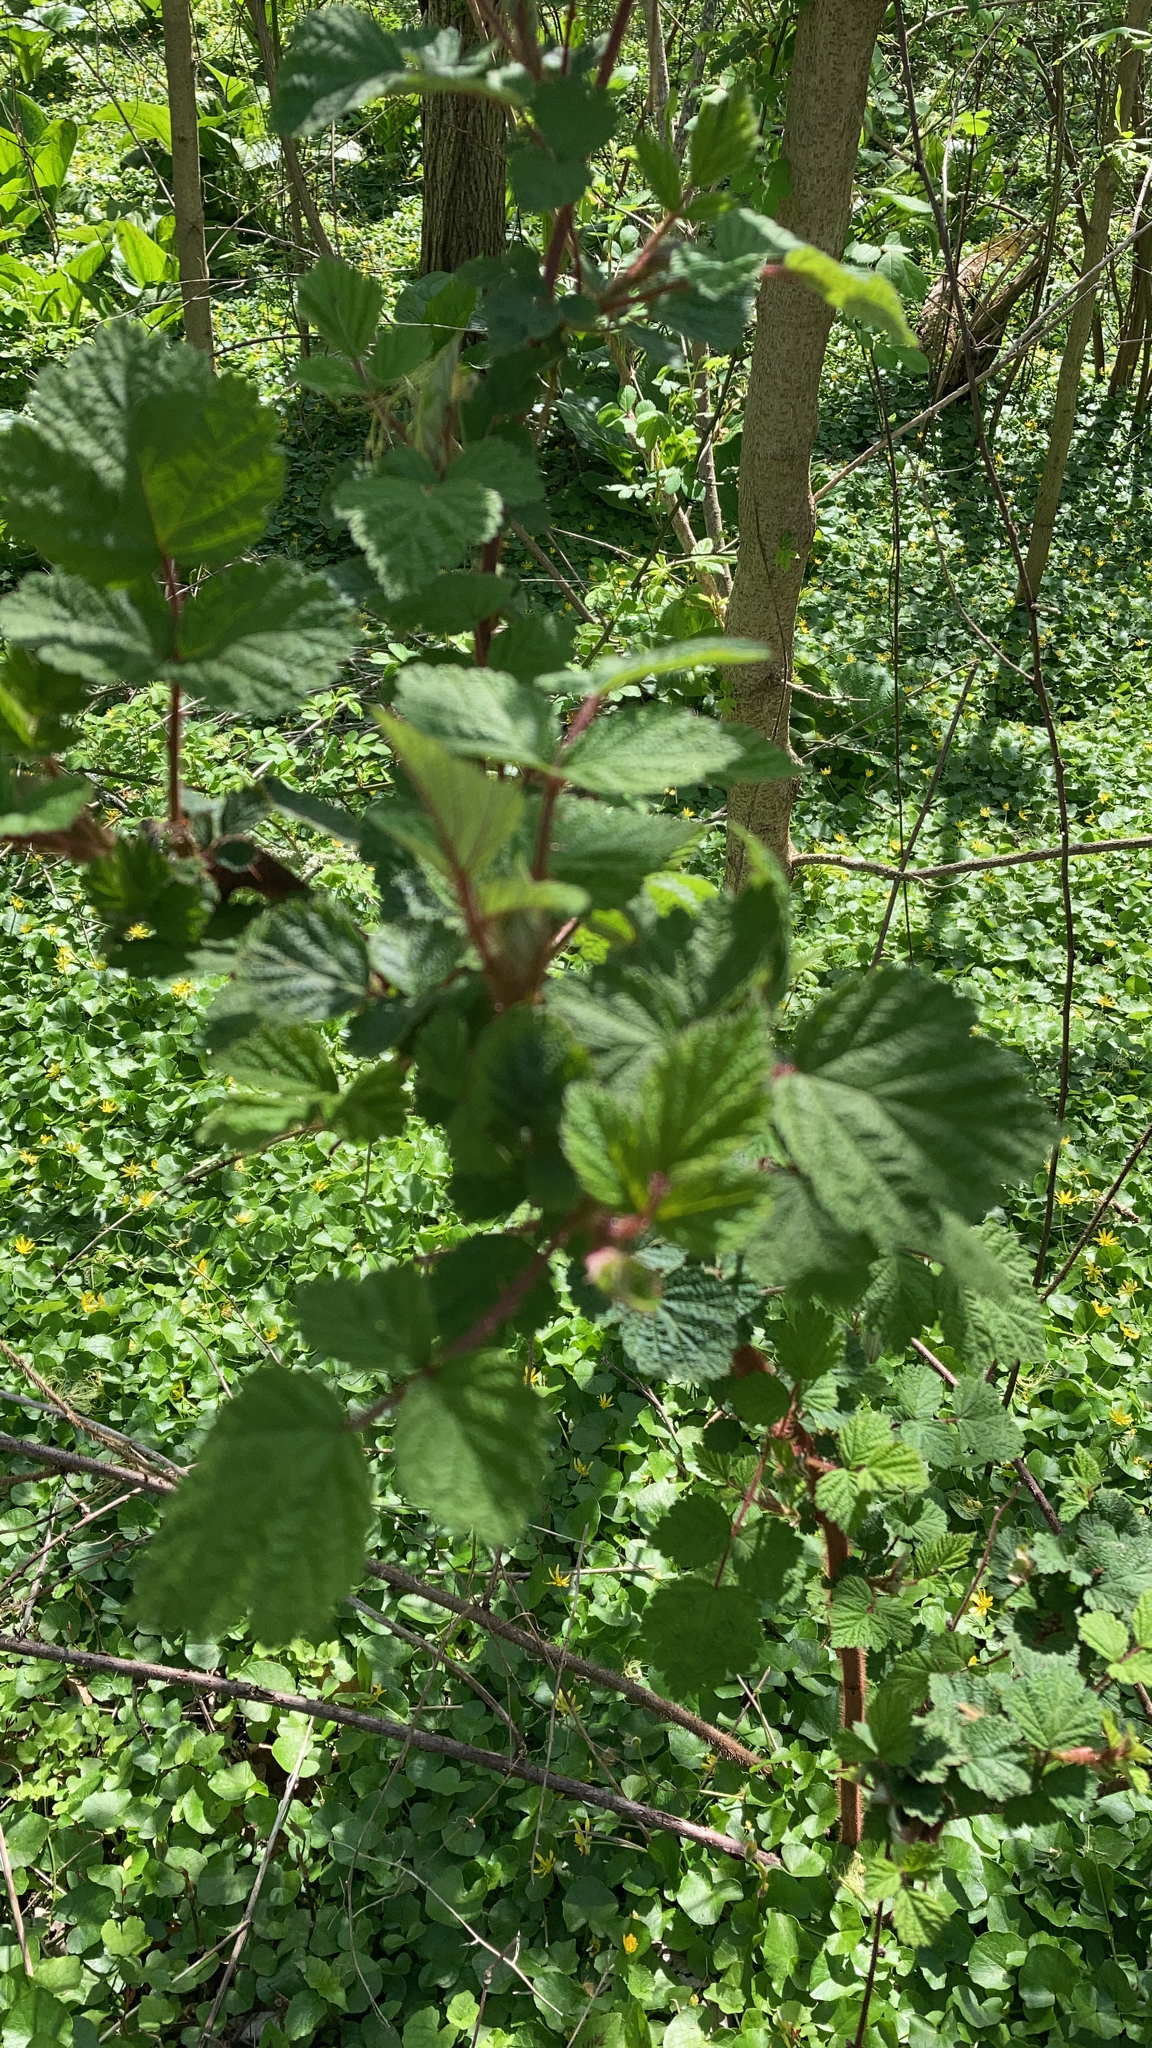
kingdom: Plantae
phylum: Tracheophyta
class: Magnoliopsida
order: Rosales
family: Rosaceae
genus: Rubus
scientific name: Rubus phoenicolasius
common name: Japanese wineberry
